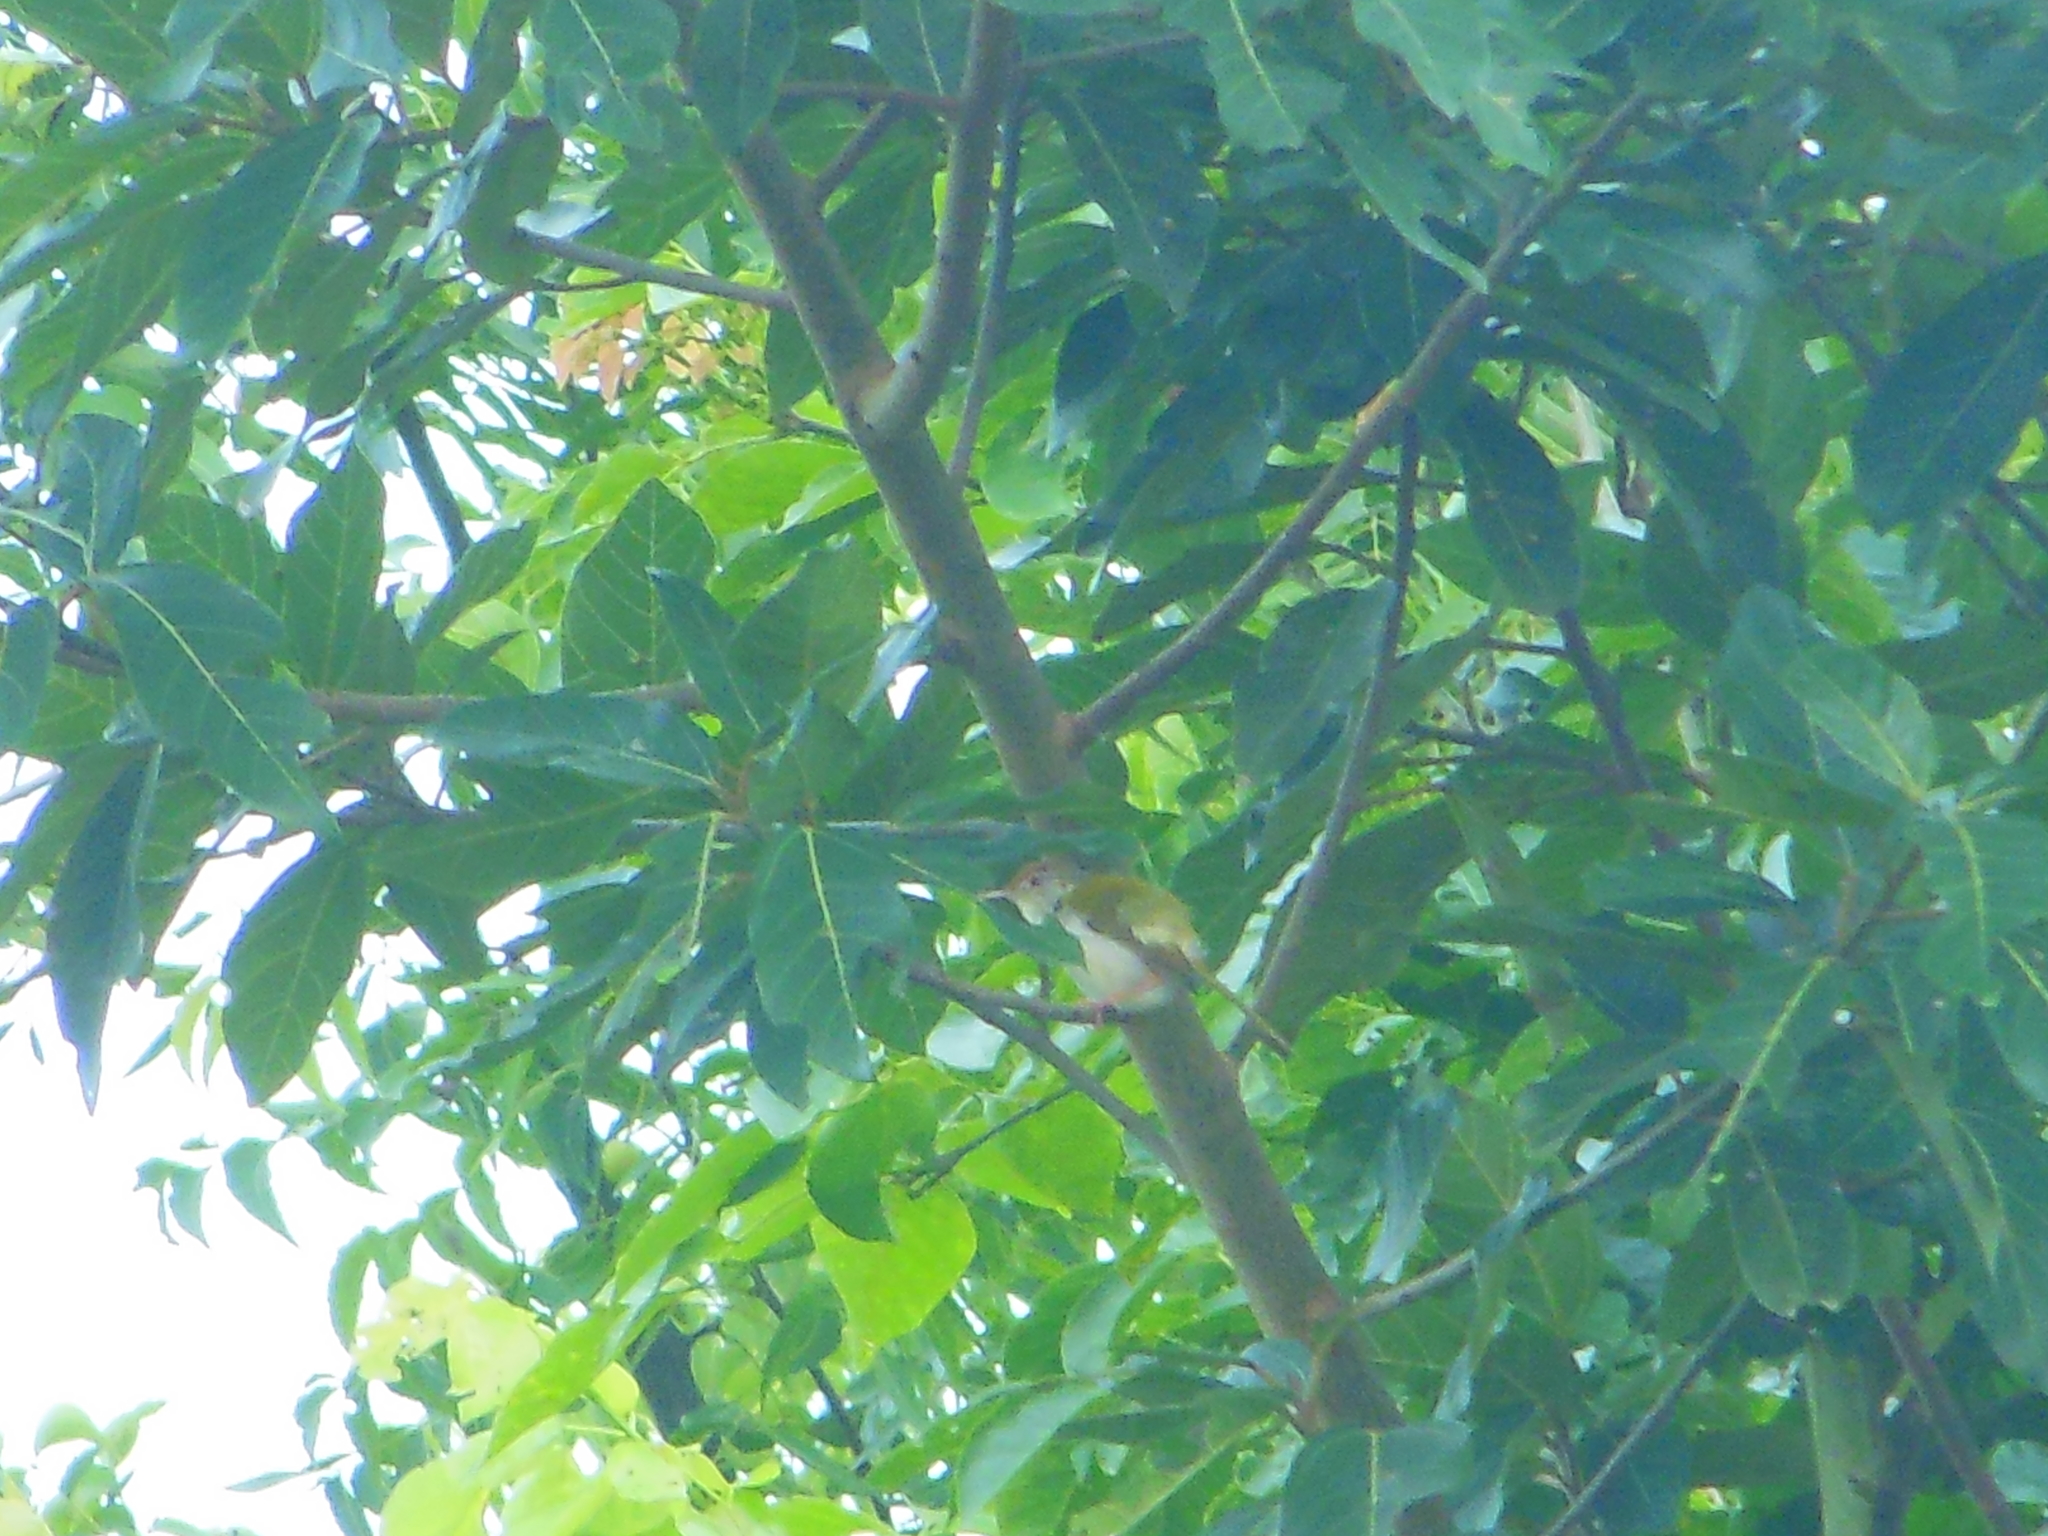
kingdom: Animalia
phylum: Chordata
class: Aves
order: Passeriformes
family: Cisticolidae
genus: Orthotomus
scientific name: Orthotomus sutorius
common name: Common tailorbird
